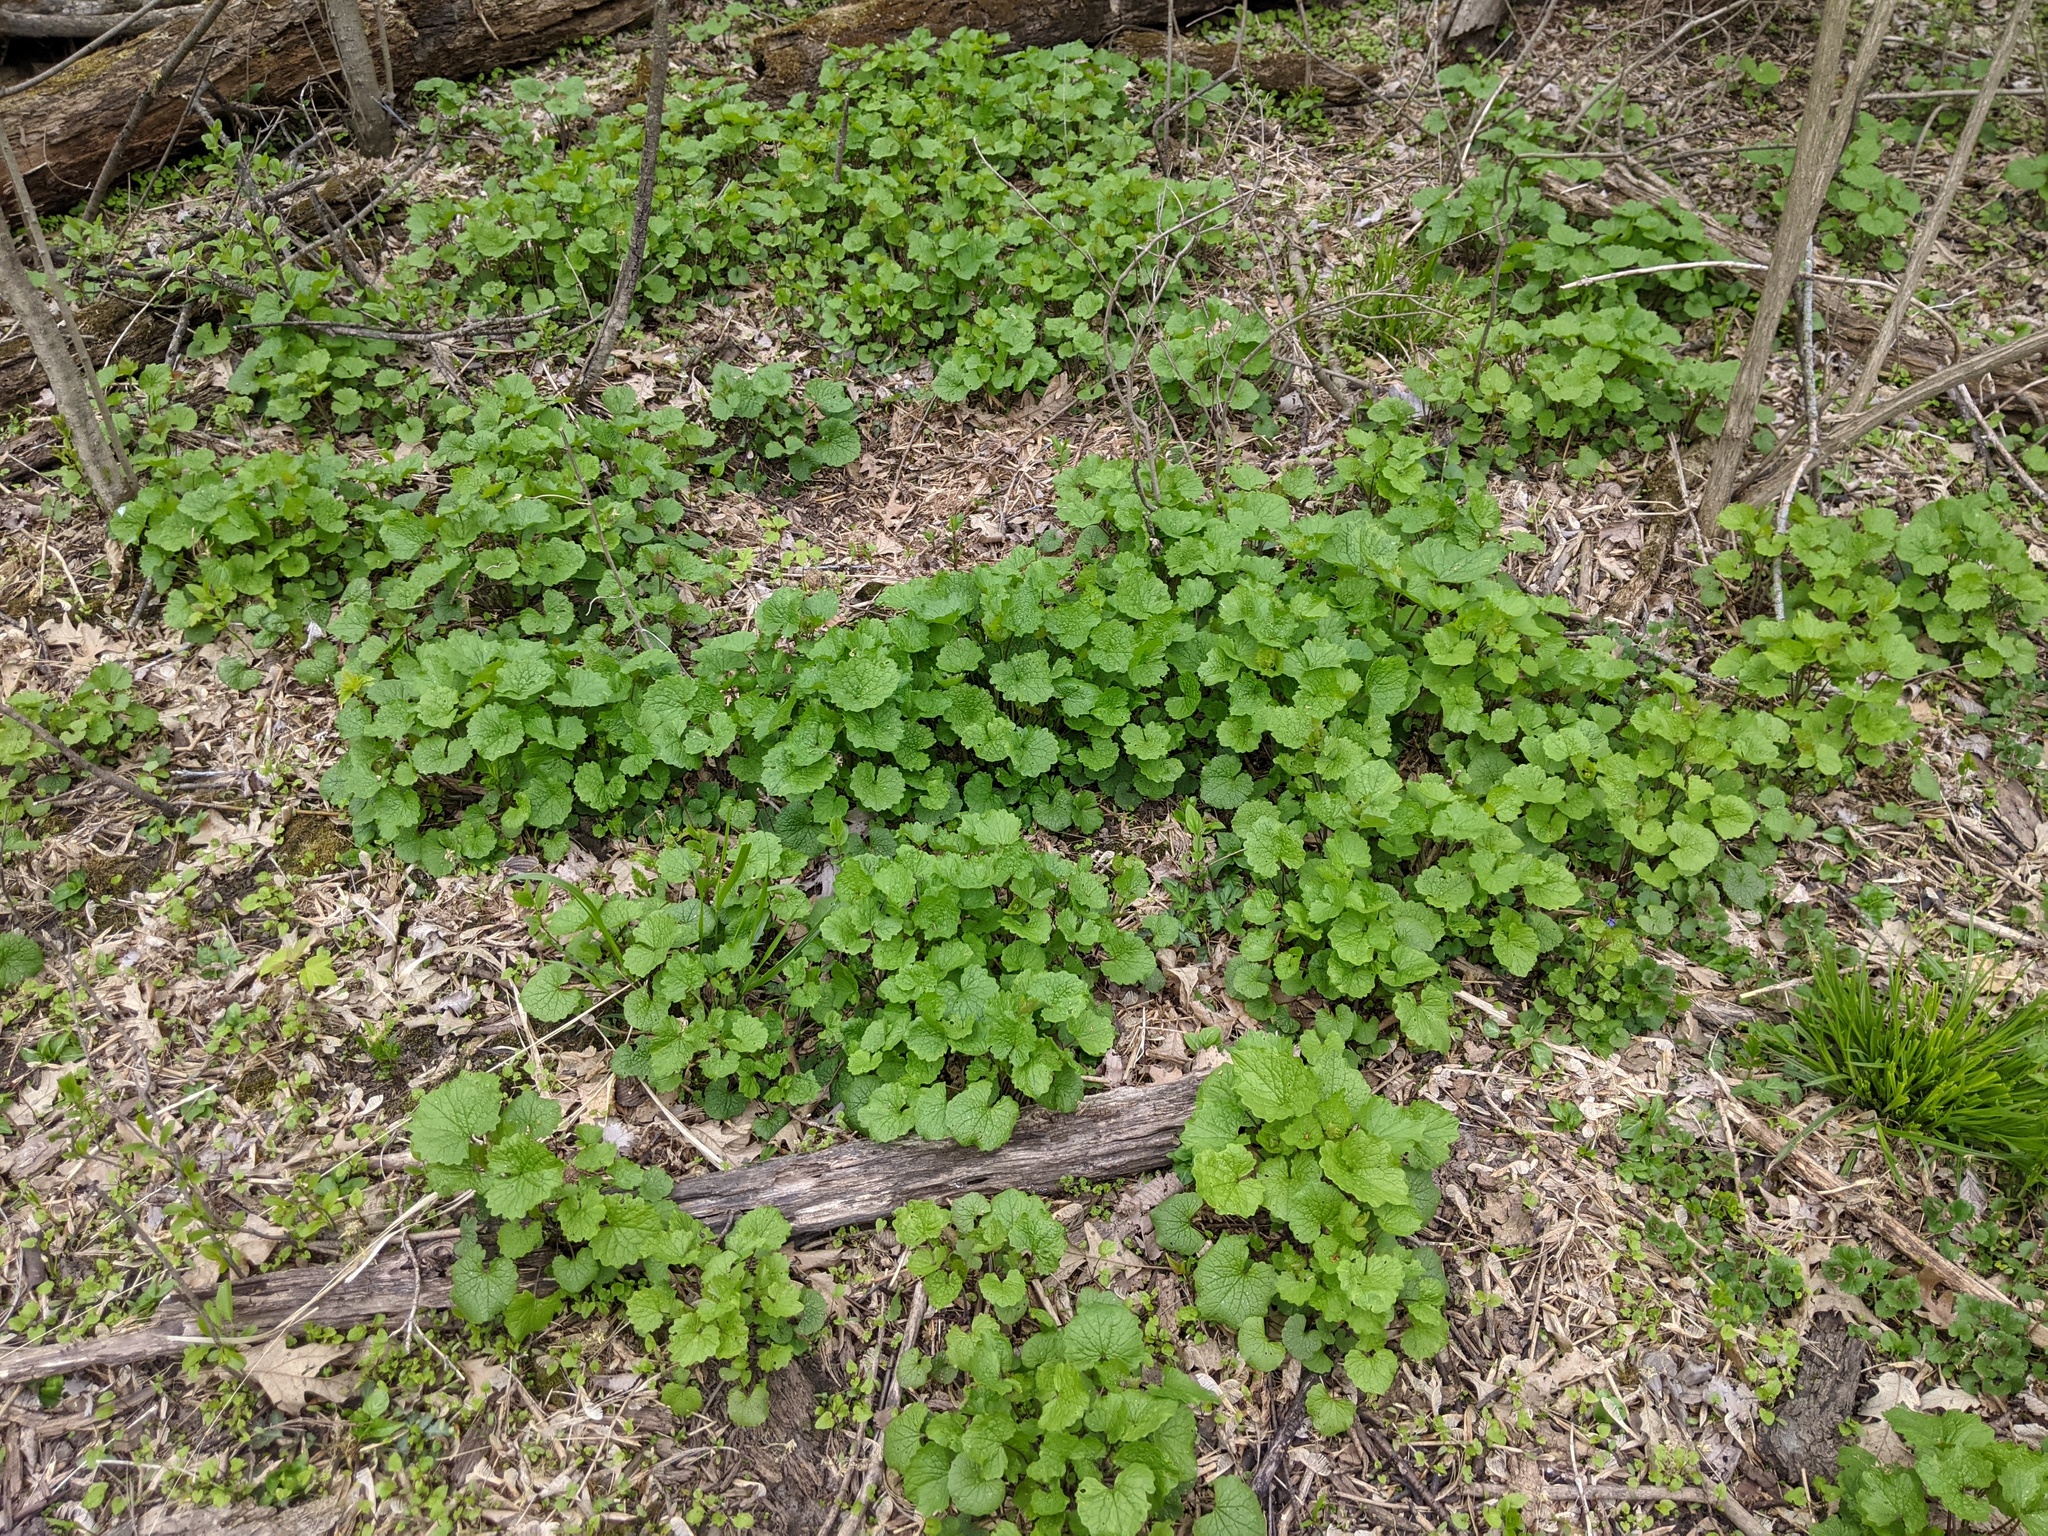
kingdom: Plantae
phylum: Tracheophyta
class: Magnoliopsida
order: Brassicales
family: Brassicaceae
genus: Alliaria
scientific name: Alliaria petiolata
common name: Garlic mustard
